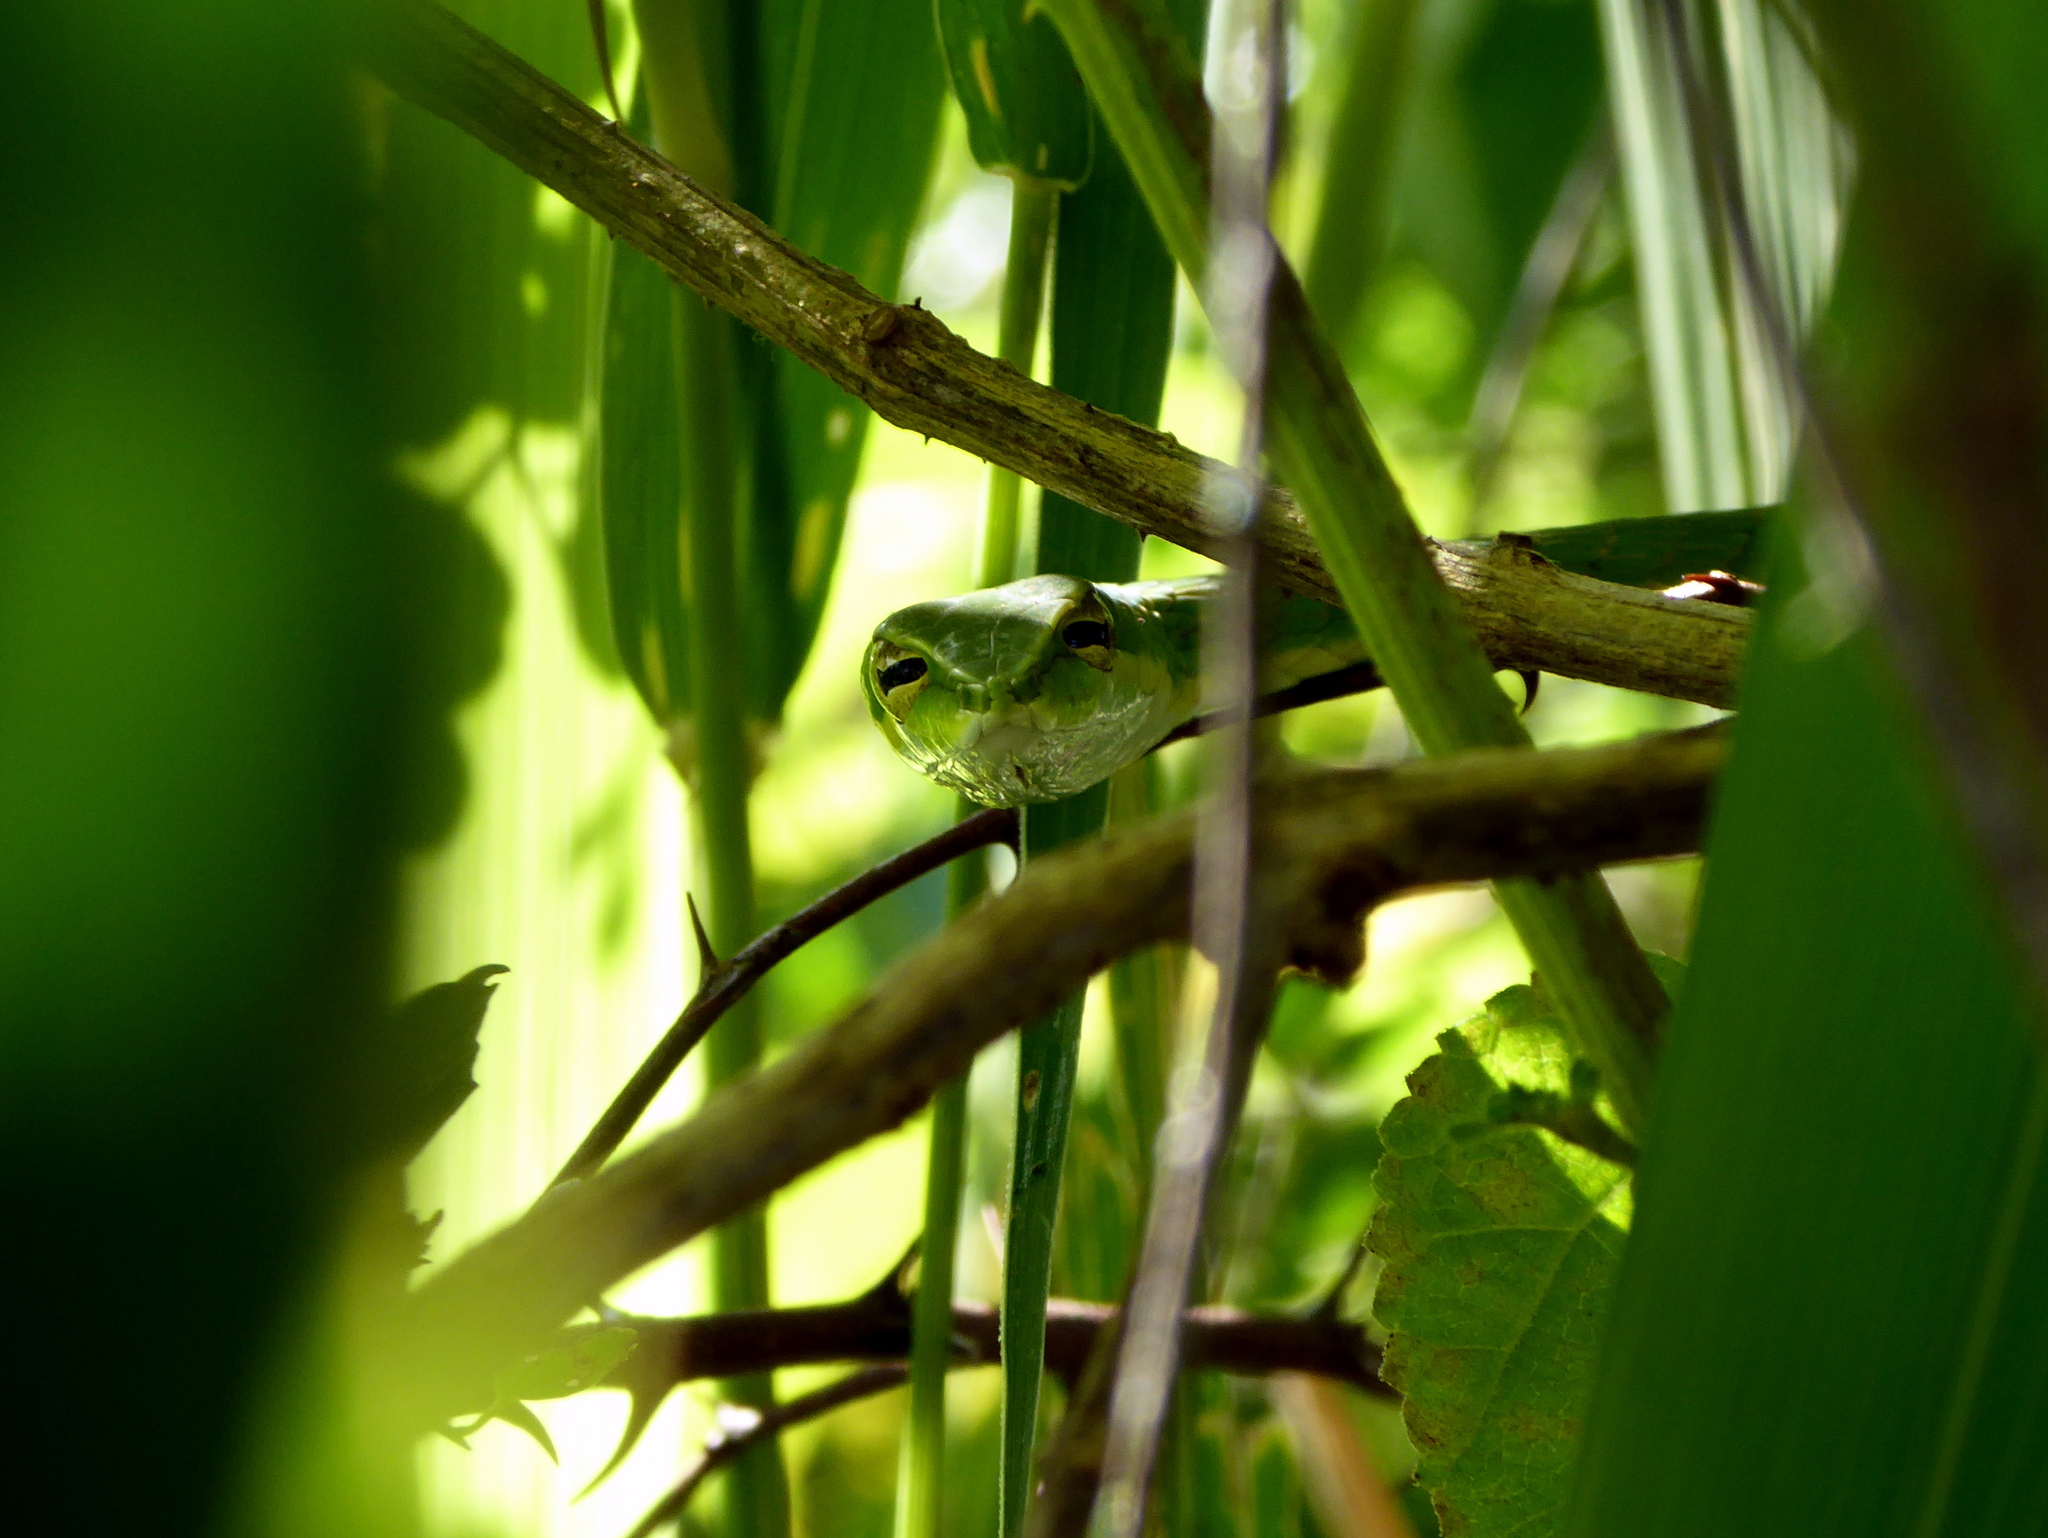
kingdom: Animalia
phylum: Chordata
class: Squamata
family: Colubridae
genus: Ahaetulla
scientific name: Ahaetulla nasuta
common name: Green vine snake
